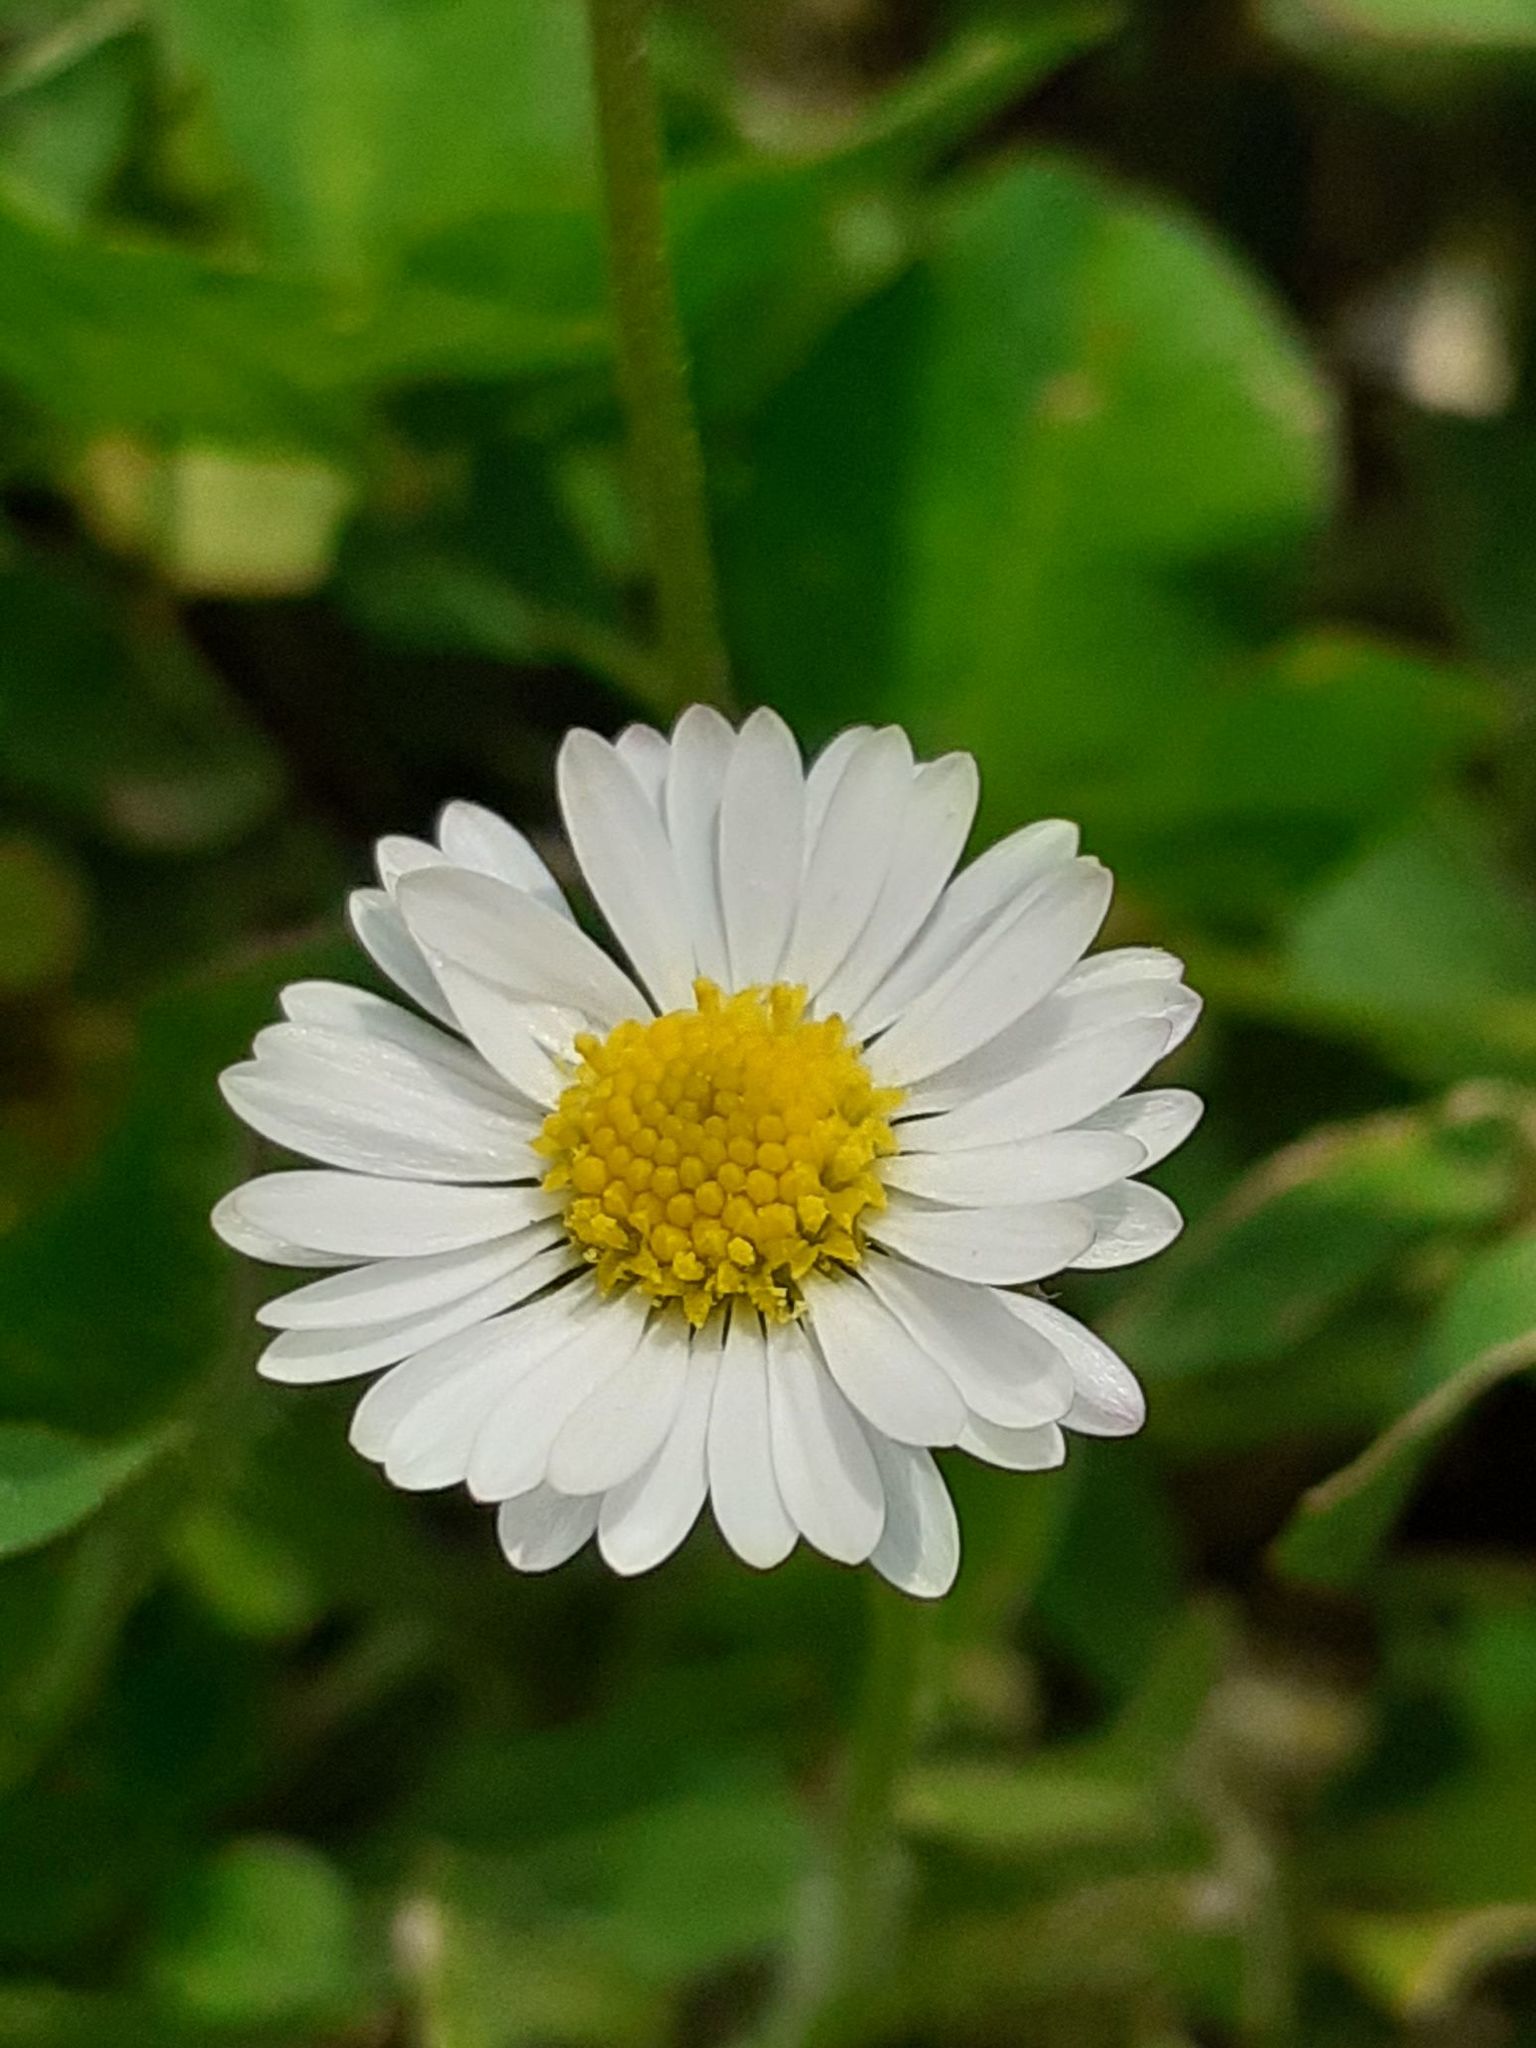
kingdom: Plantae
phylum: Tracheophyta
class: Magnoliopsida
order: Asterales
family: Asteraceae
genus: Bellis
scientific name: Bellis perennis
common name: Lawndaisy
